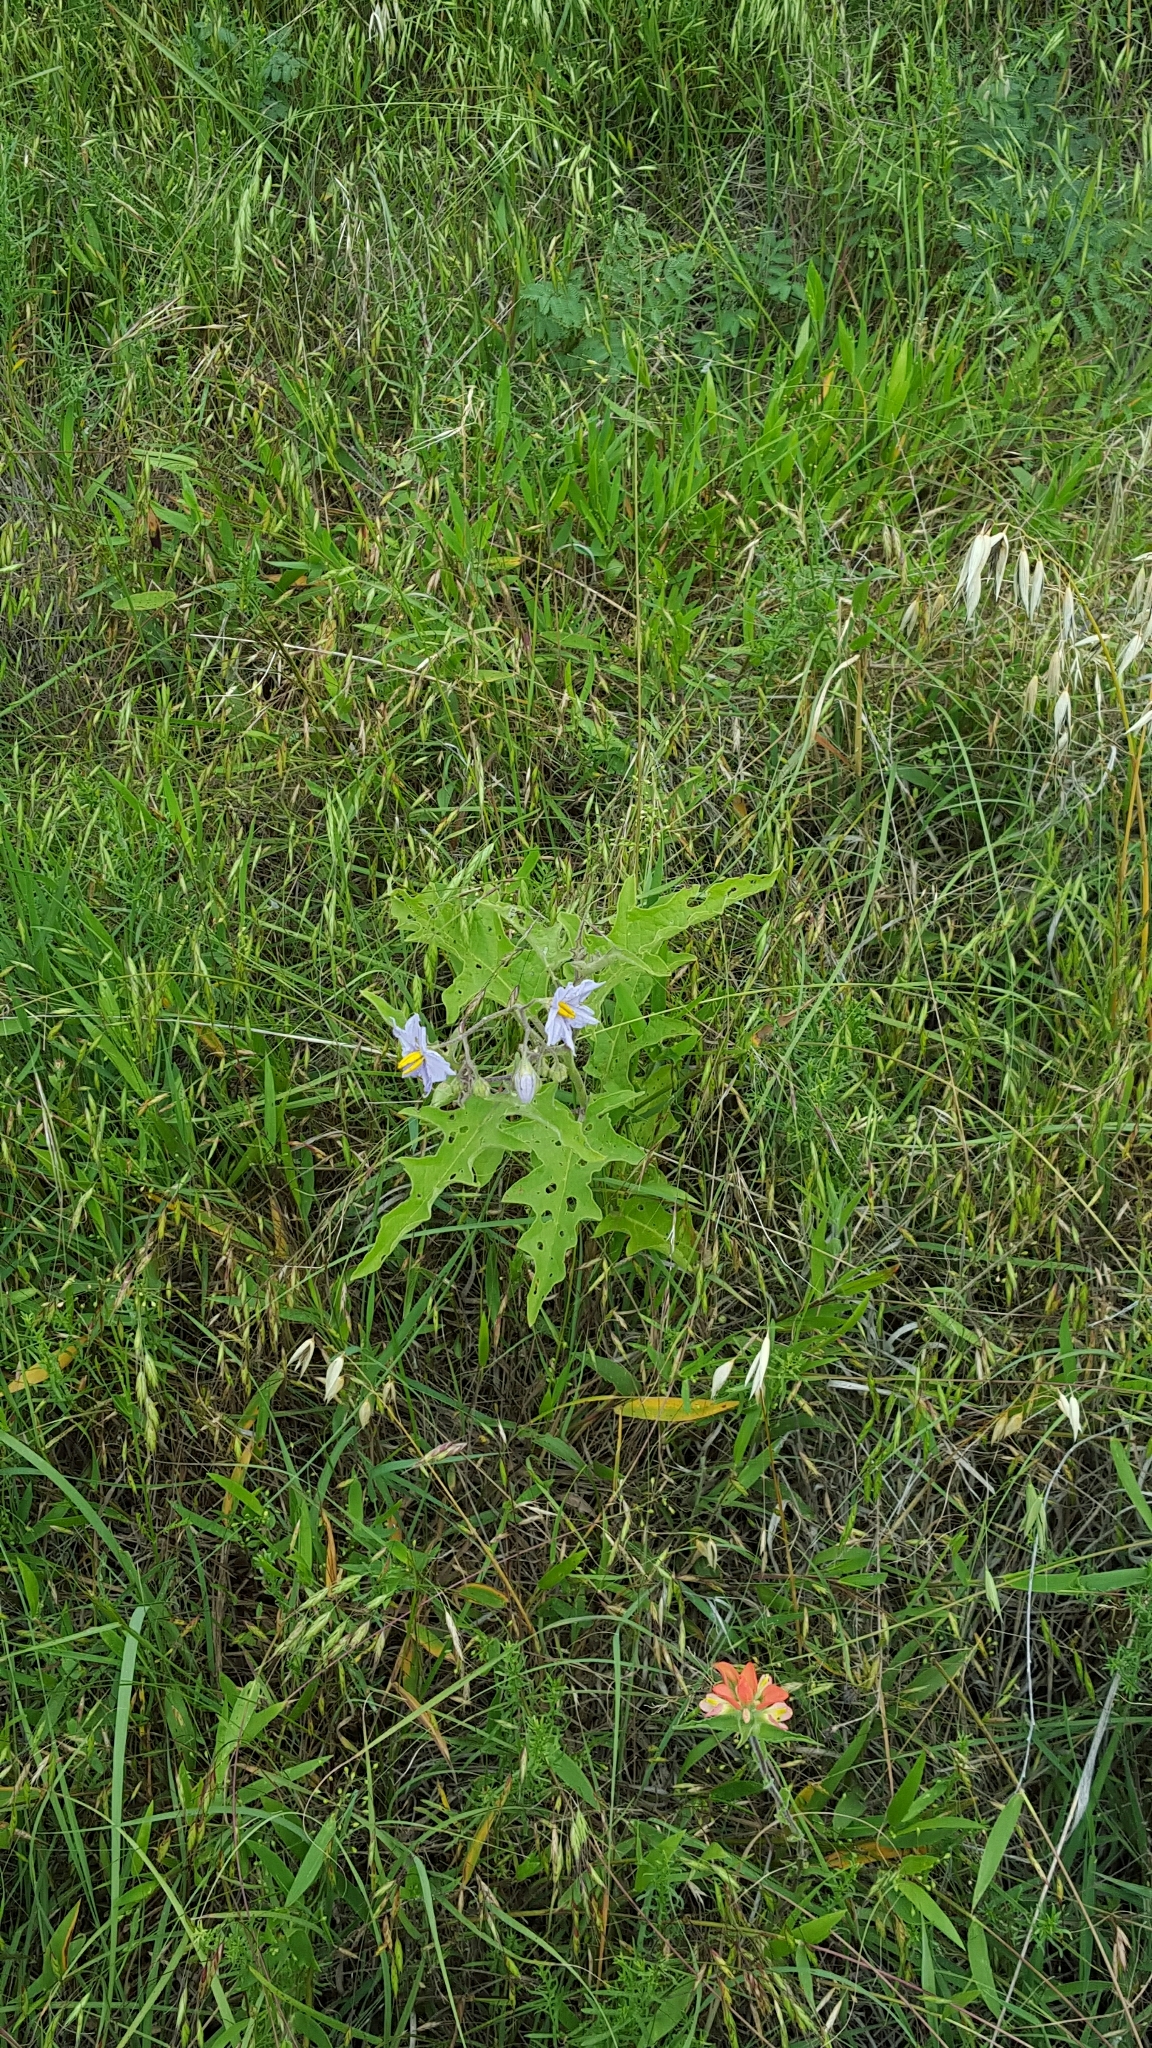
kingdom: Plantae
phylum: Tracheophyta
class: Magnoliopsida
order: Solanales
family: Solanaceae
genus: Solanum
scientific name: Solanum dimidiatum
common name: Carolina horse-nettle
